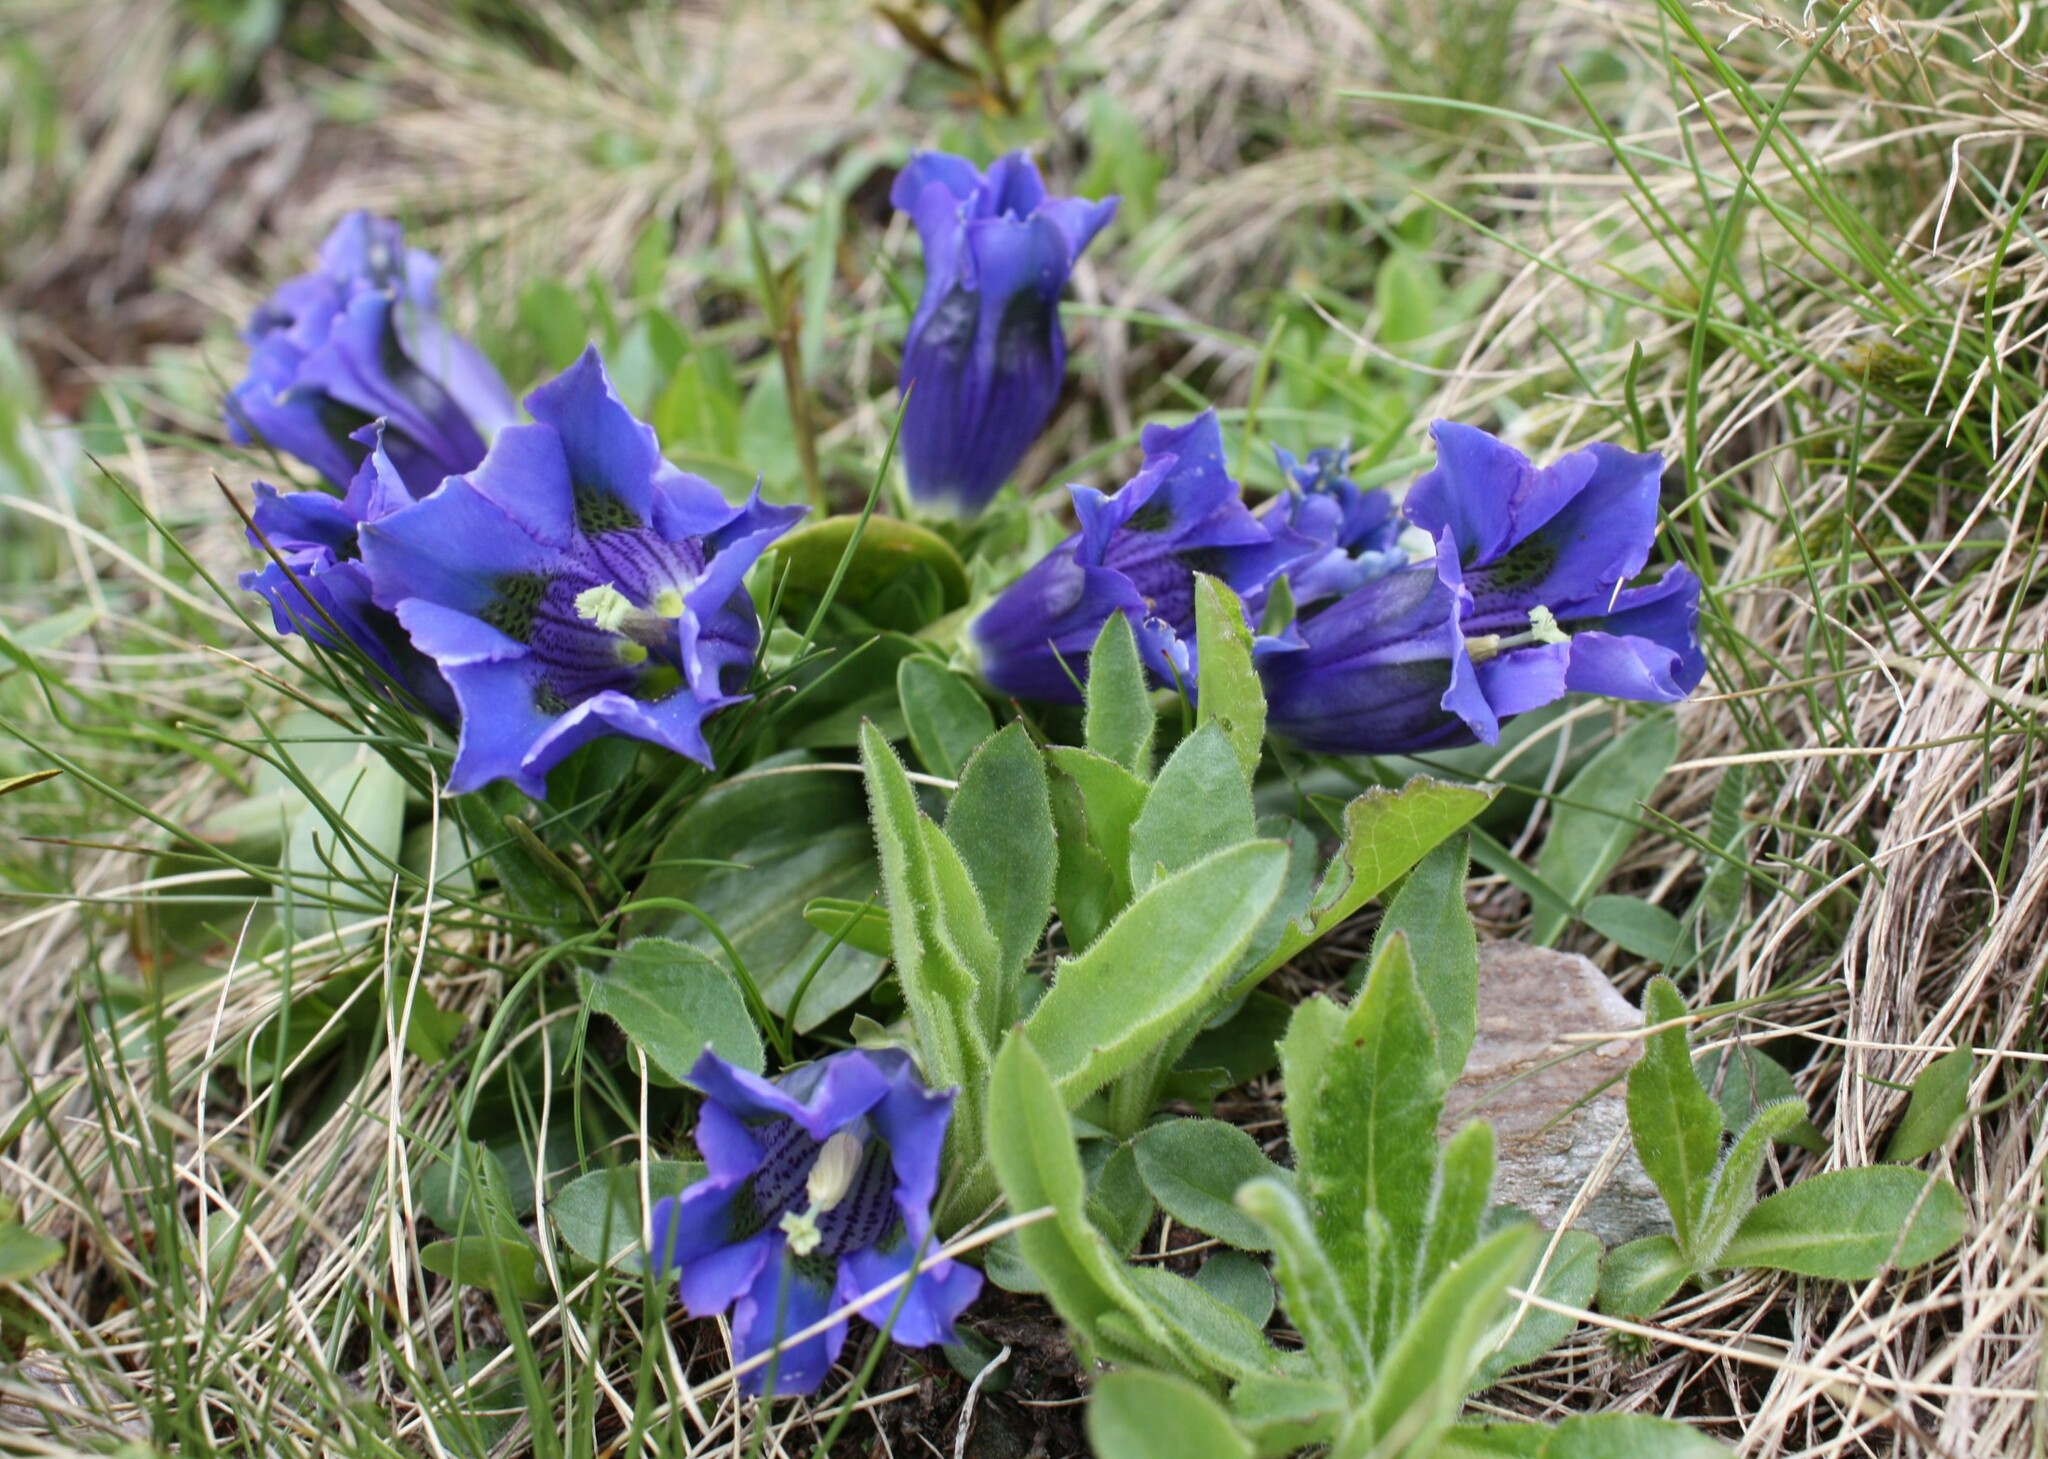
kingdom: Plantae
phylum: Tracheophyta
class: Magnoliopsida
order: Gentianales
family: Gentianaceae
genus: Gentiana
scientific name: Gentiana acaulis
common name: Trumpet gentian
